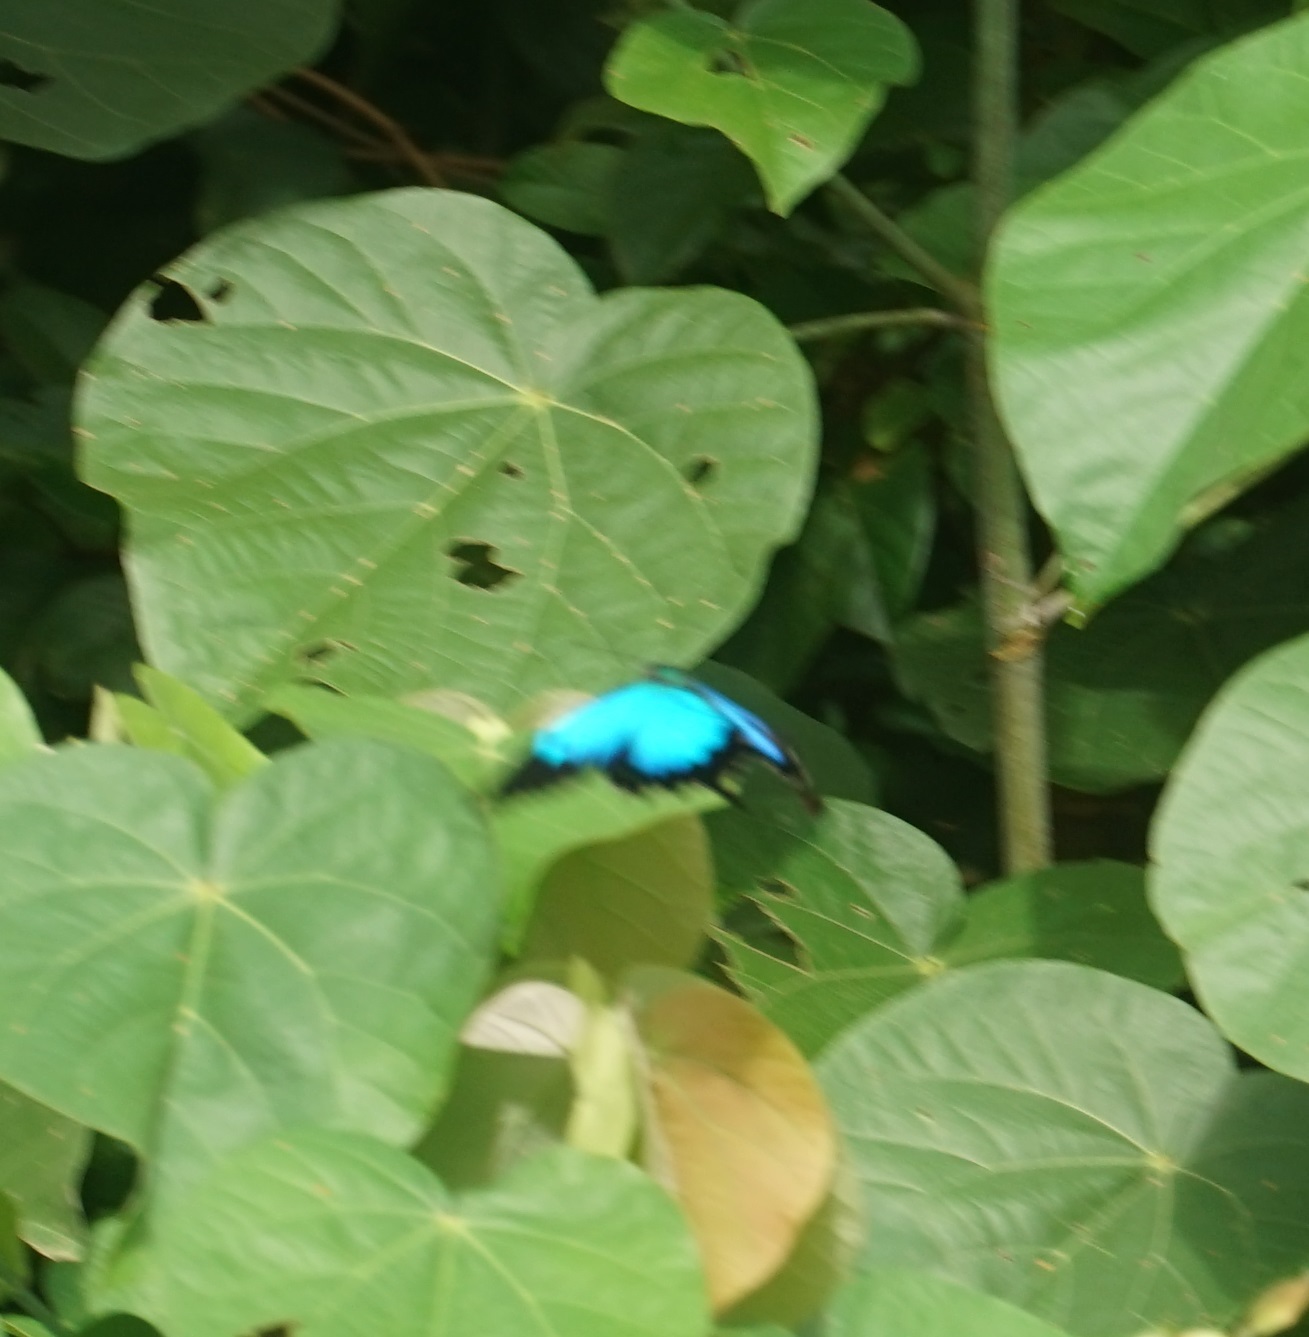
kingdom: Animalia
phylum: Arthropoda
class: Insecta
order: Lepidoptera
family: Papilionidae
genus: Papilio
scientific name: Papilio ulysses
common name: Blue emperor
